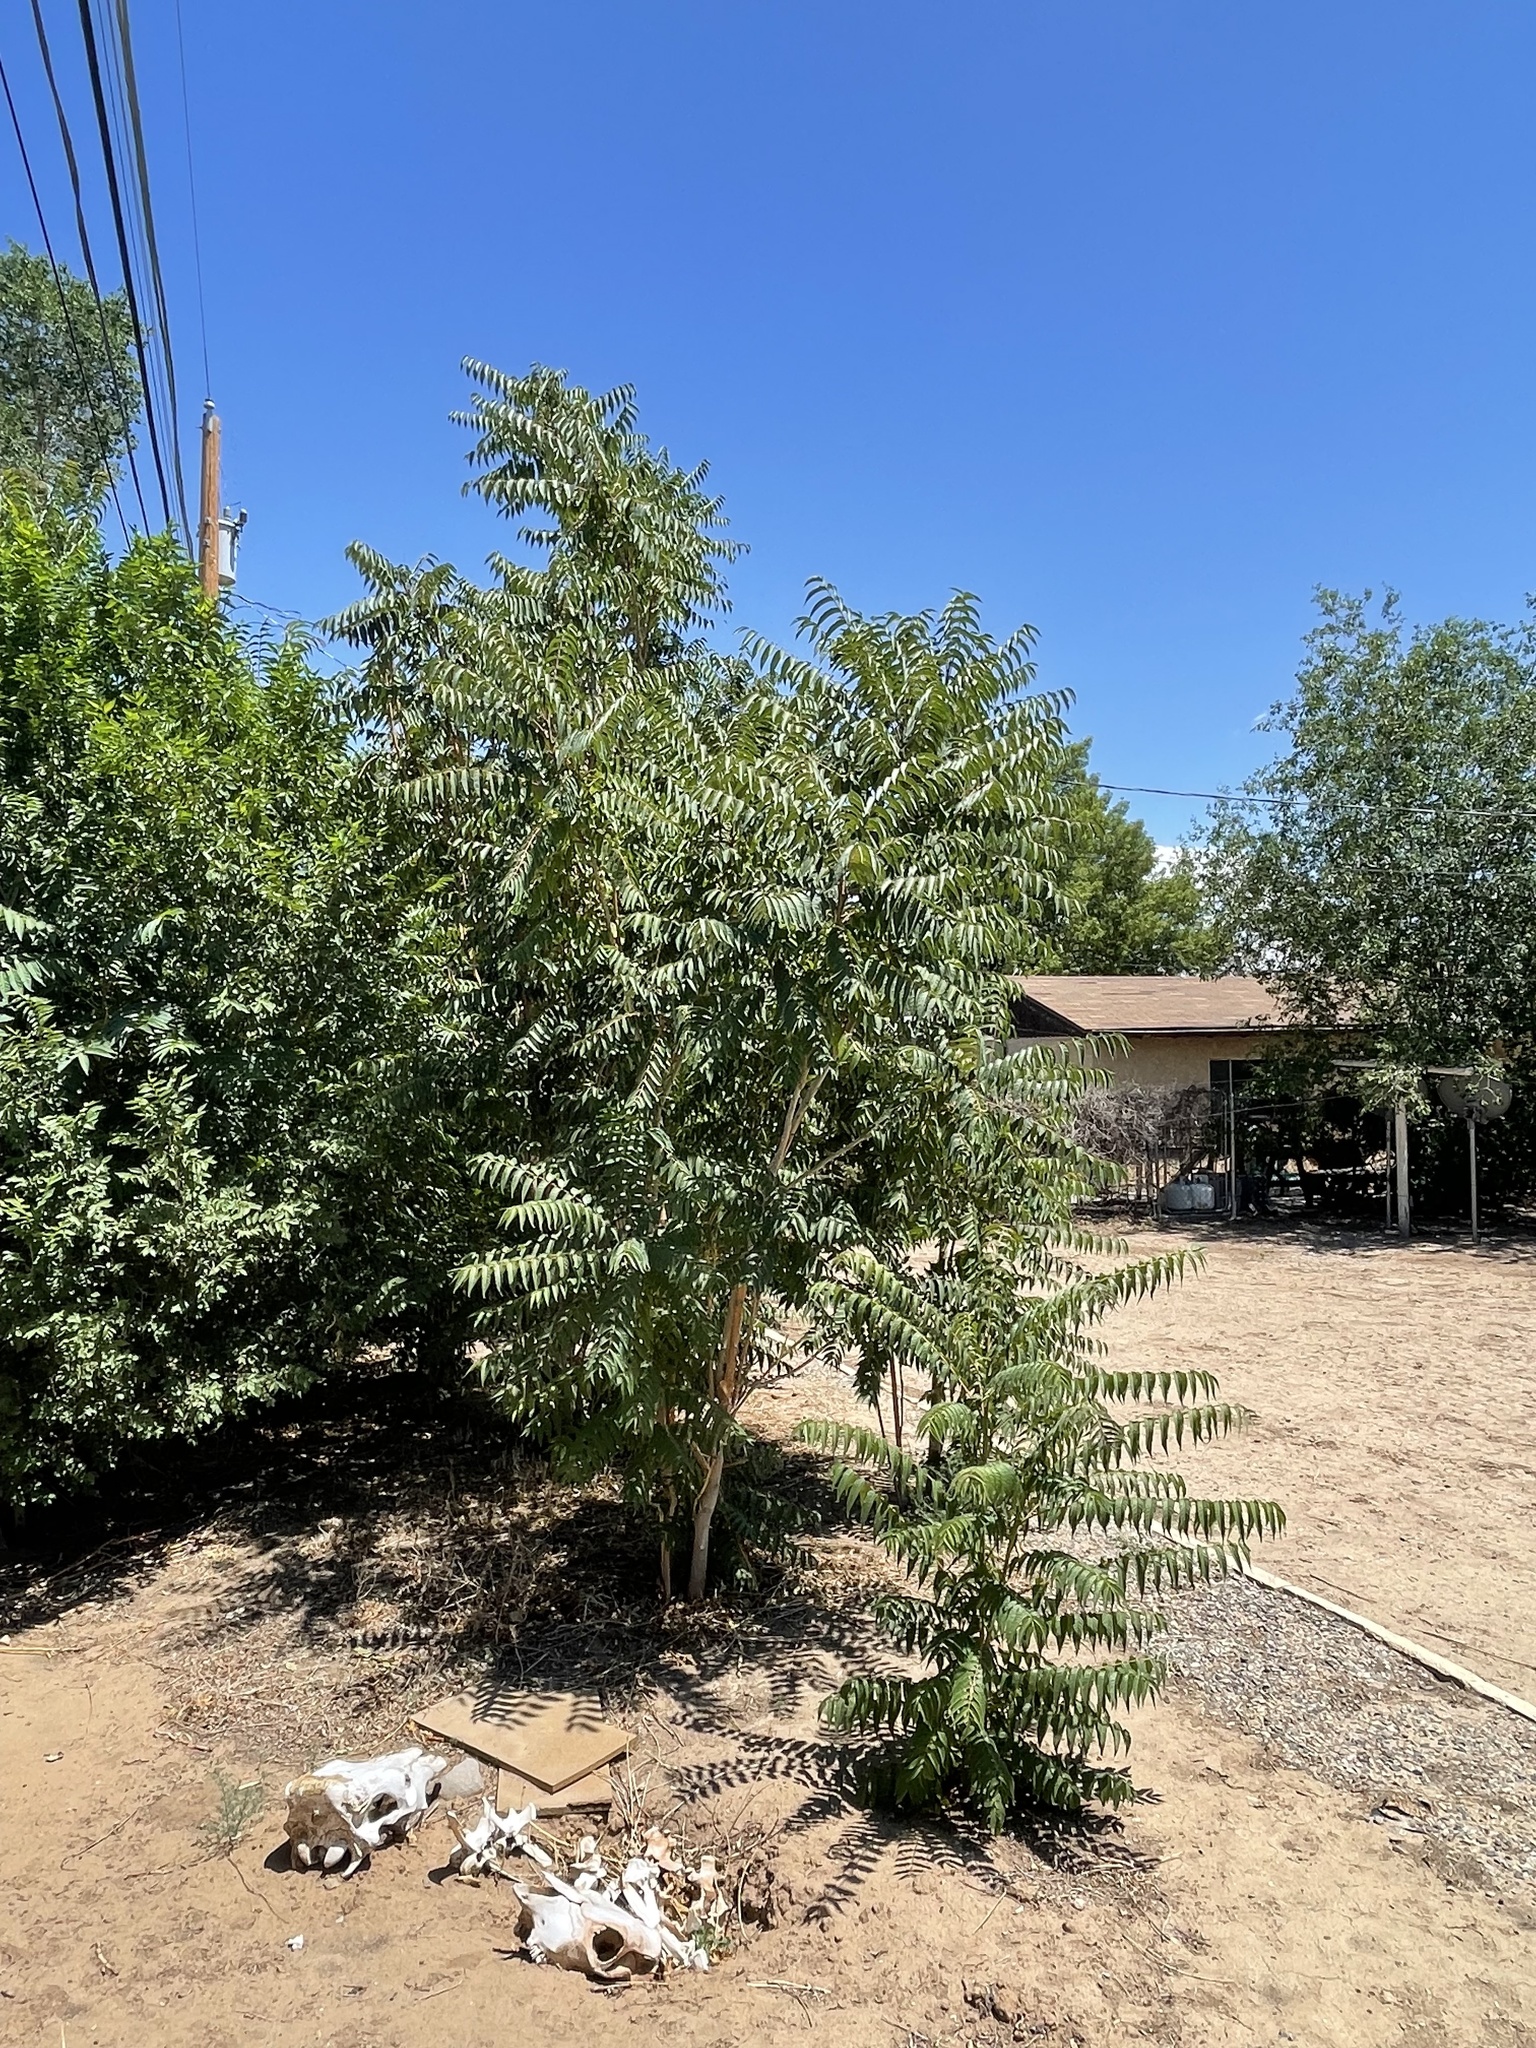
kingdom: Plantae
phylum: Tracheophyta
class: Magnoliopsida
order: Sapindales
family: Simaroubaceae
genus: Ailanthus
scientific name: Ailanthus altissima
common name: Tree-of-heaven
